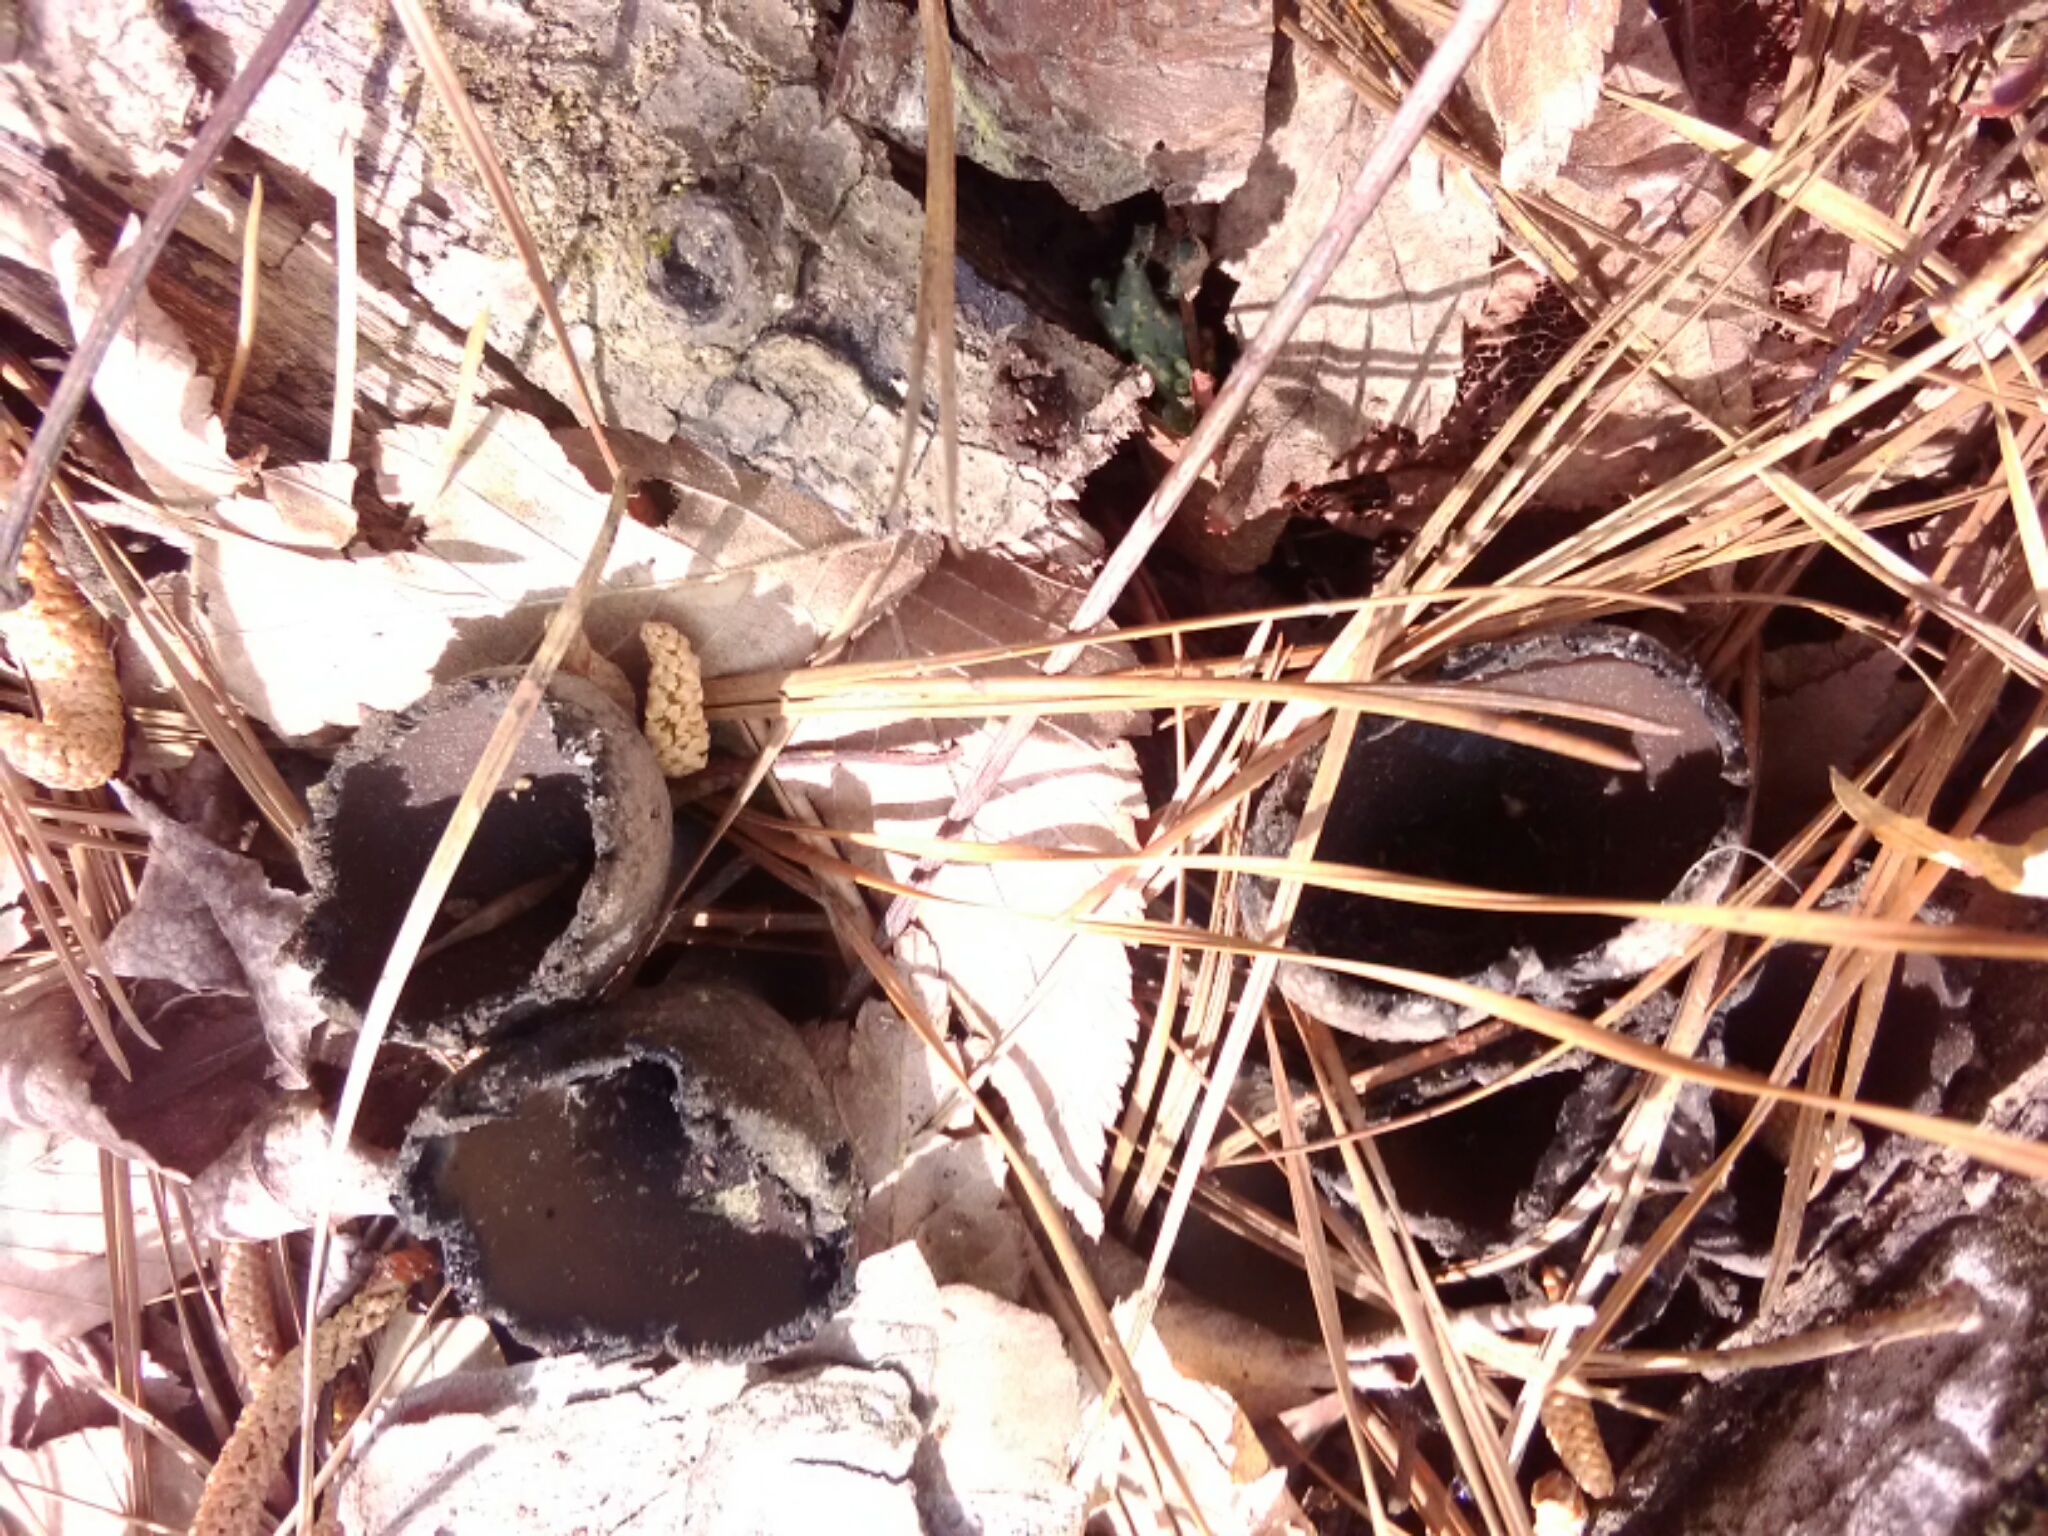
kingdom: Fungi
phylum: Ascomycota
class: Pezizomycetes
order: Pezizales
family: Sarcosomataceae
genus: Urnula
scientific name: Urnula craterium
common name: Devil's urn
